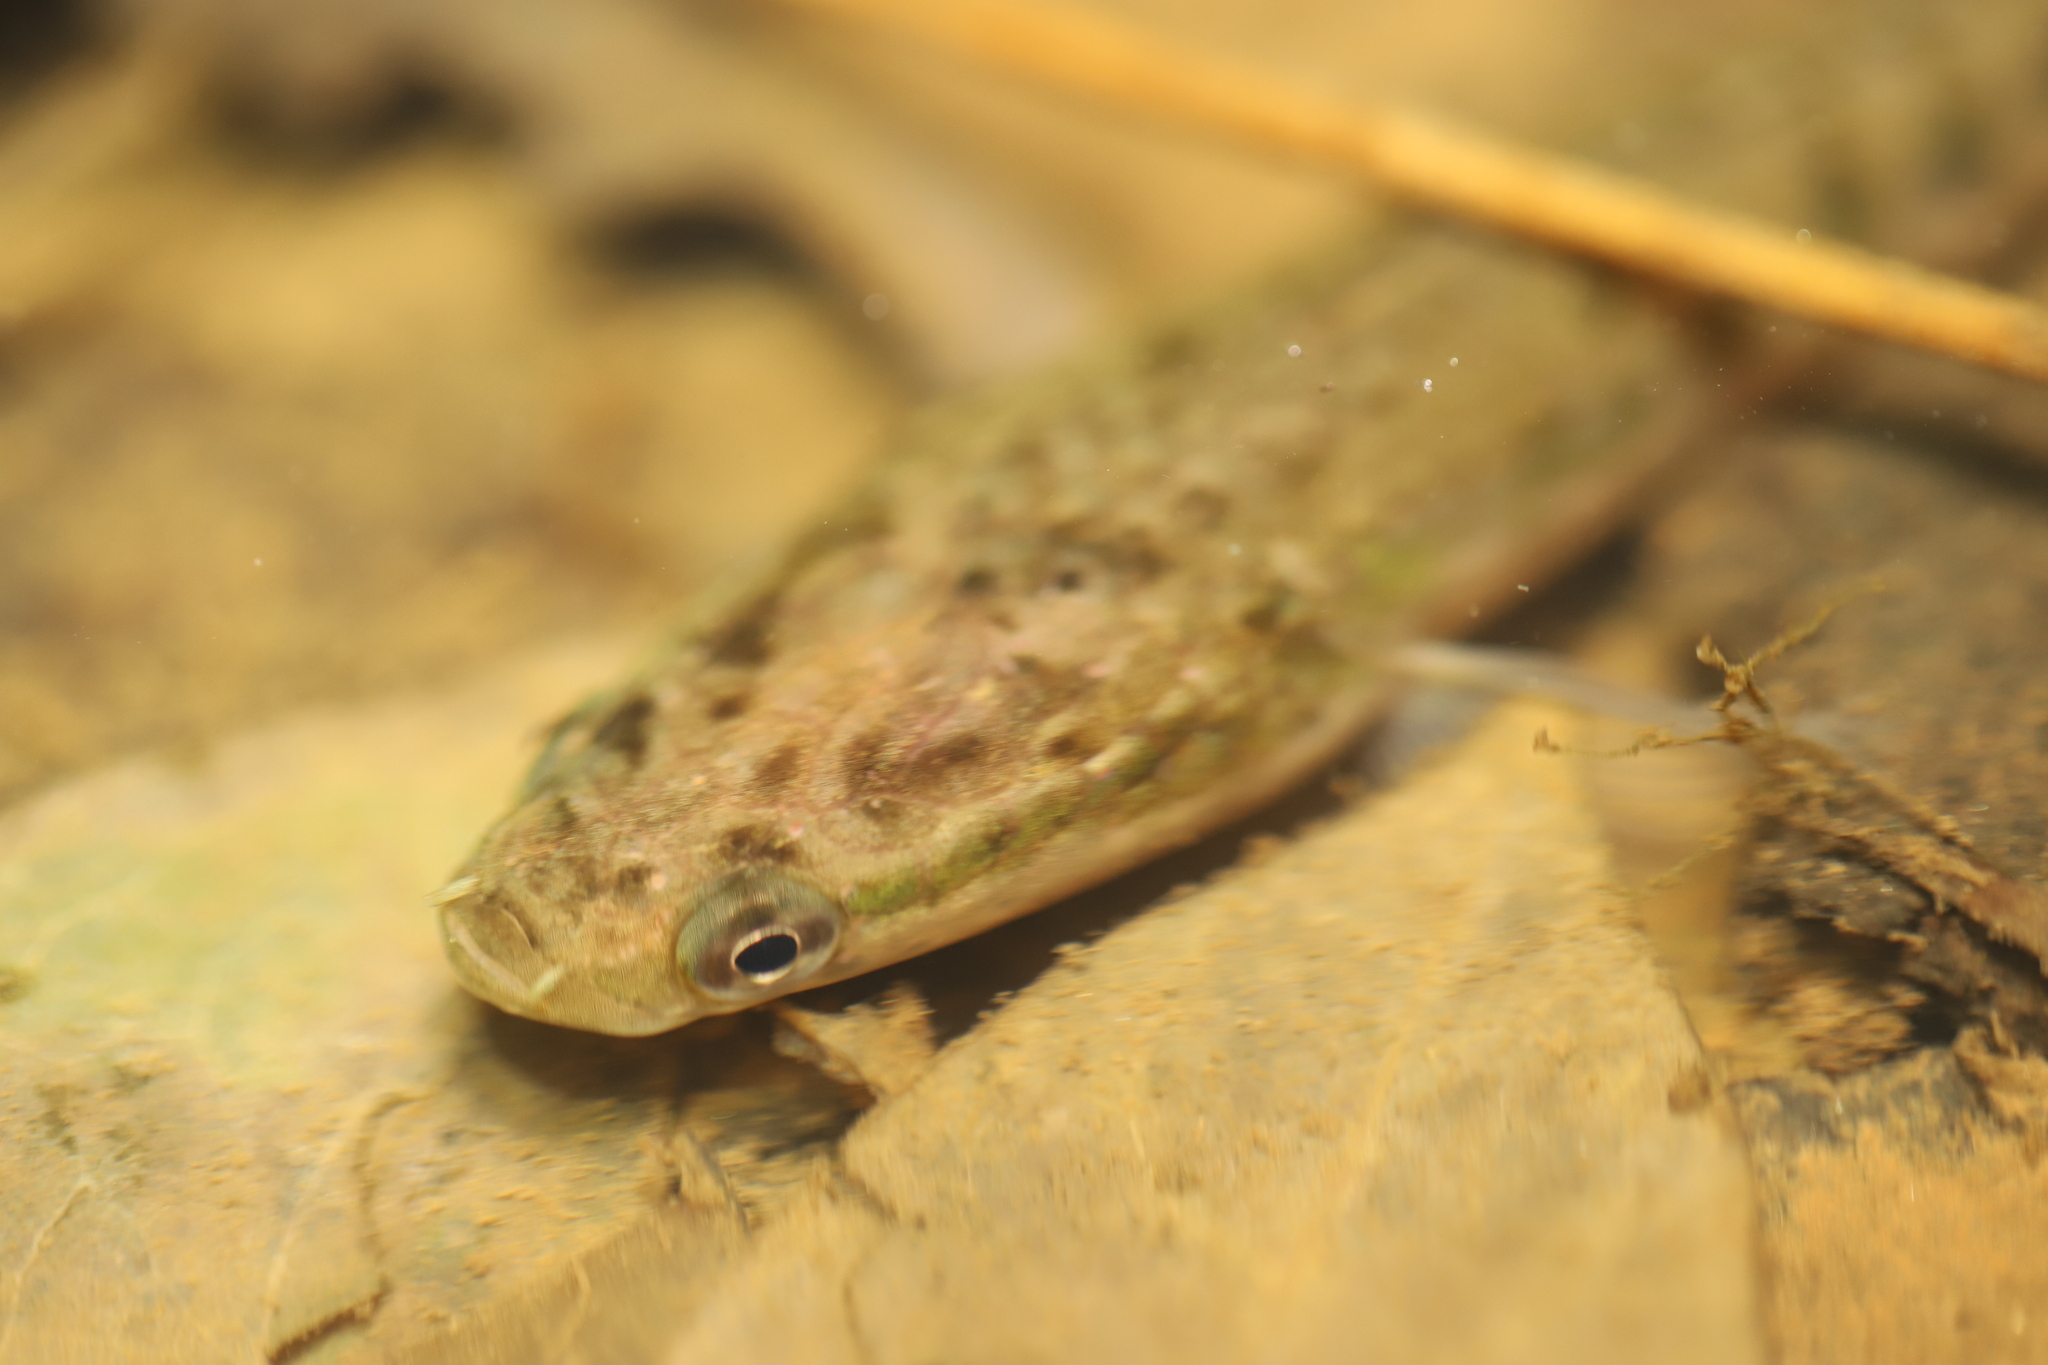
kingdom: Animalia
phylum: Chordata
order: Perciformes
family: Channidae
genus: Channa
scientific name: Channa punctata
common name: Spotted snakehead
